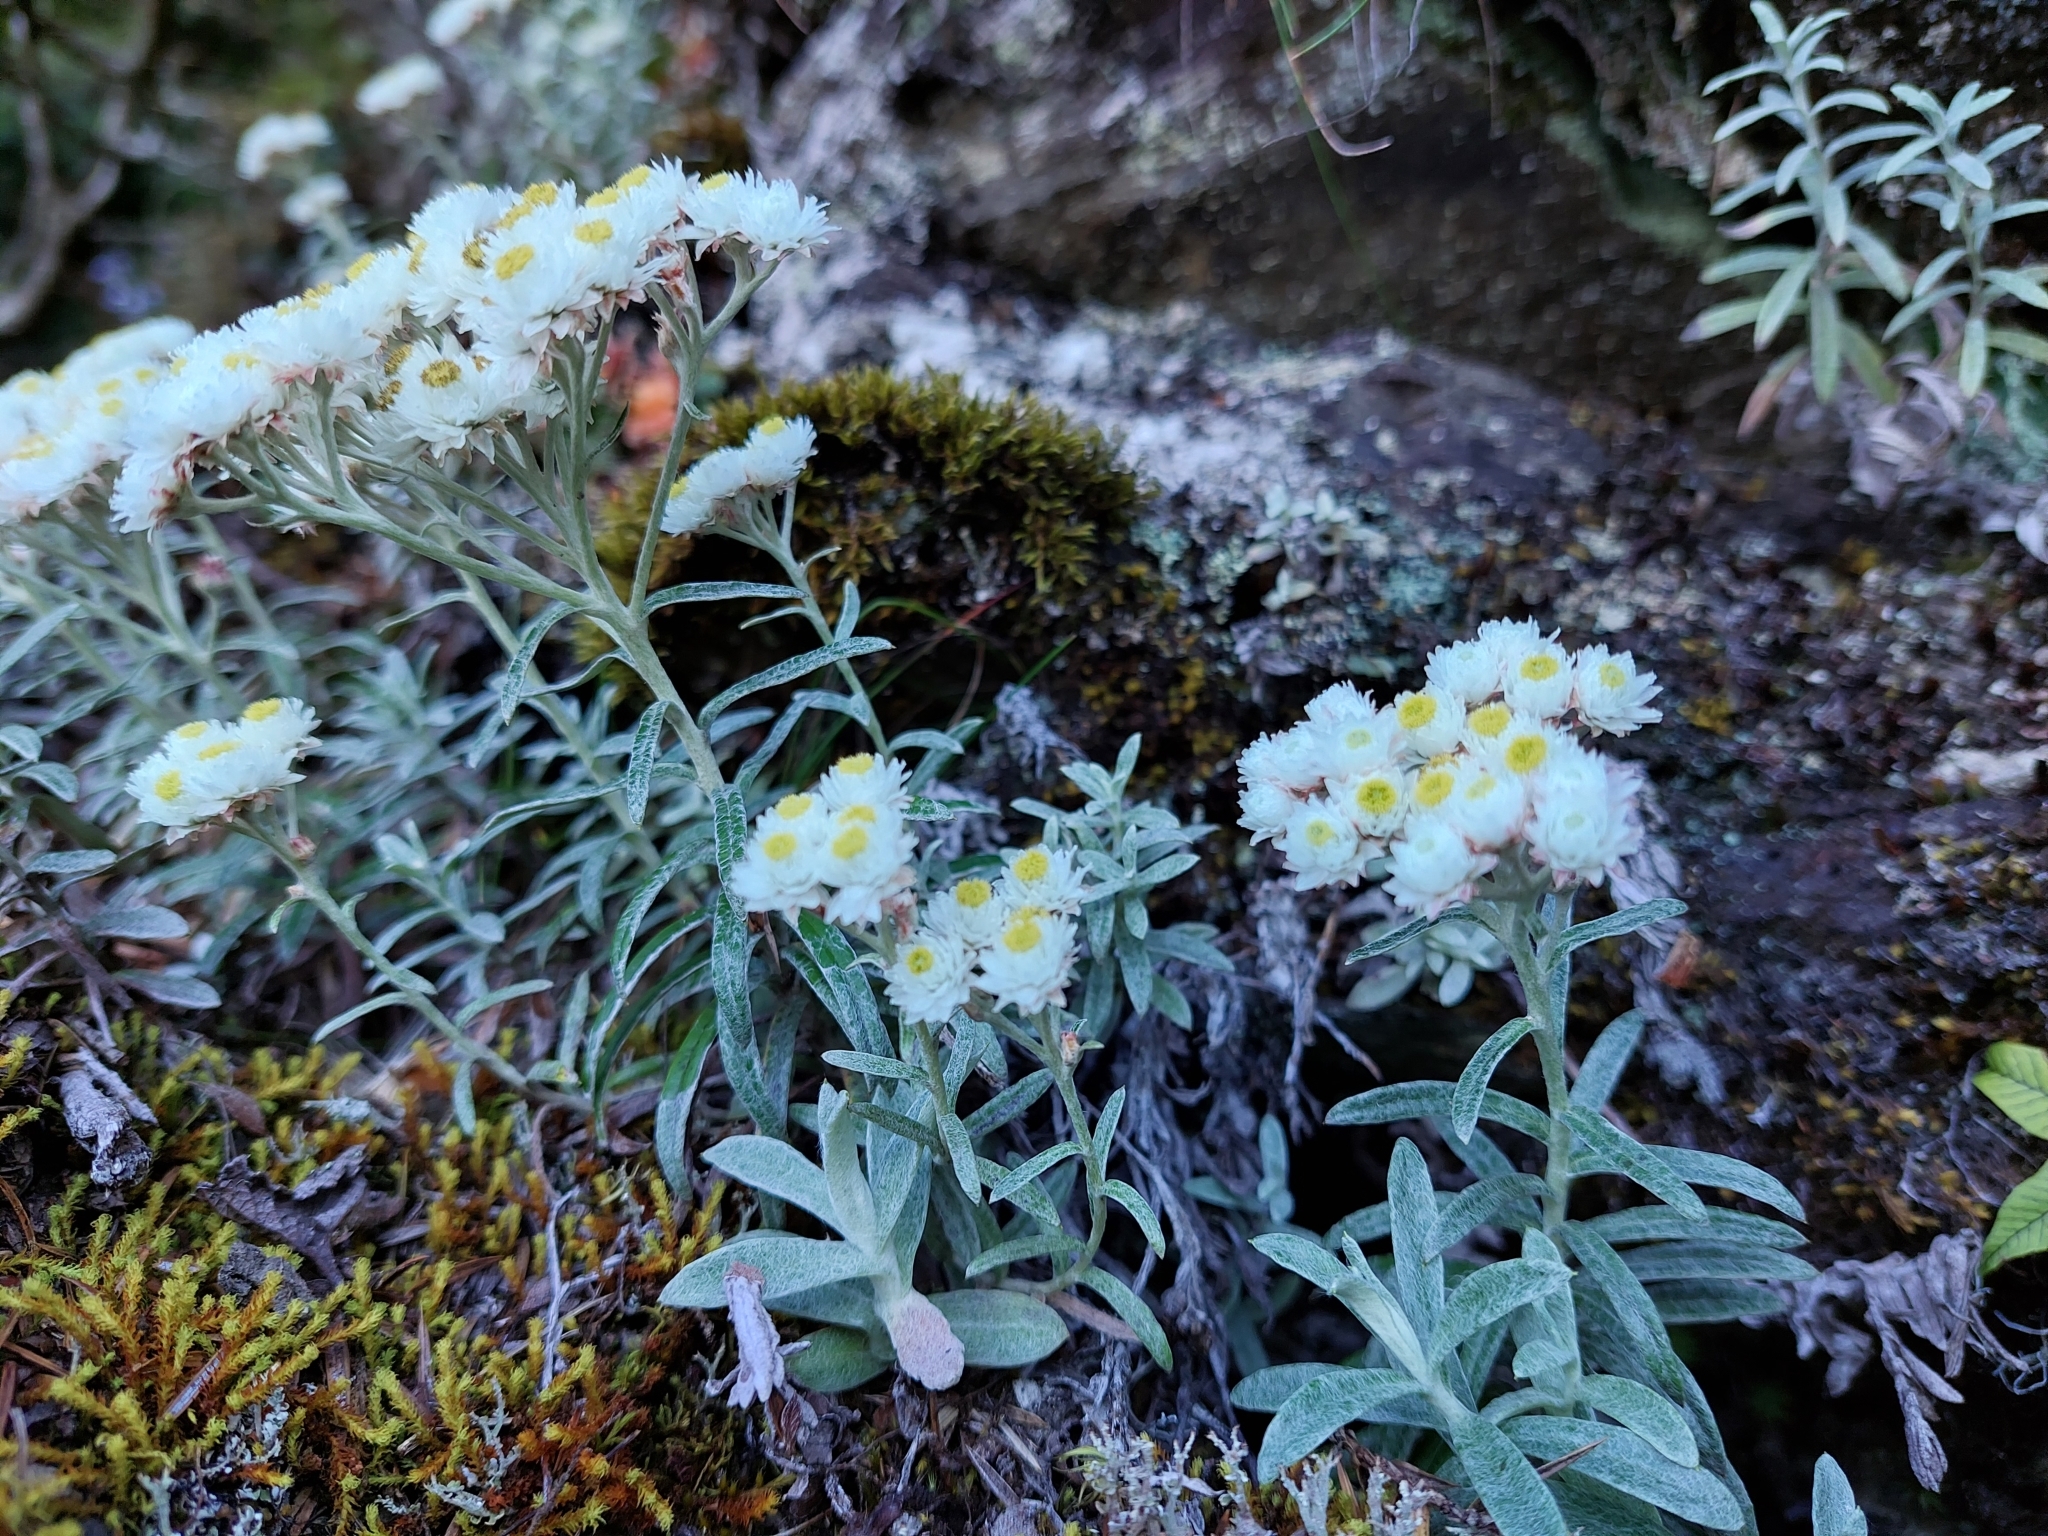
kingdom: Plantae
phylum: Tracheophyta
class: Magnoliopsida
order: Asterales
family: Asteraceae
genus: Anaphalis
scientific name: Anaphalis morrisonicola
